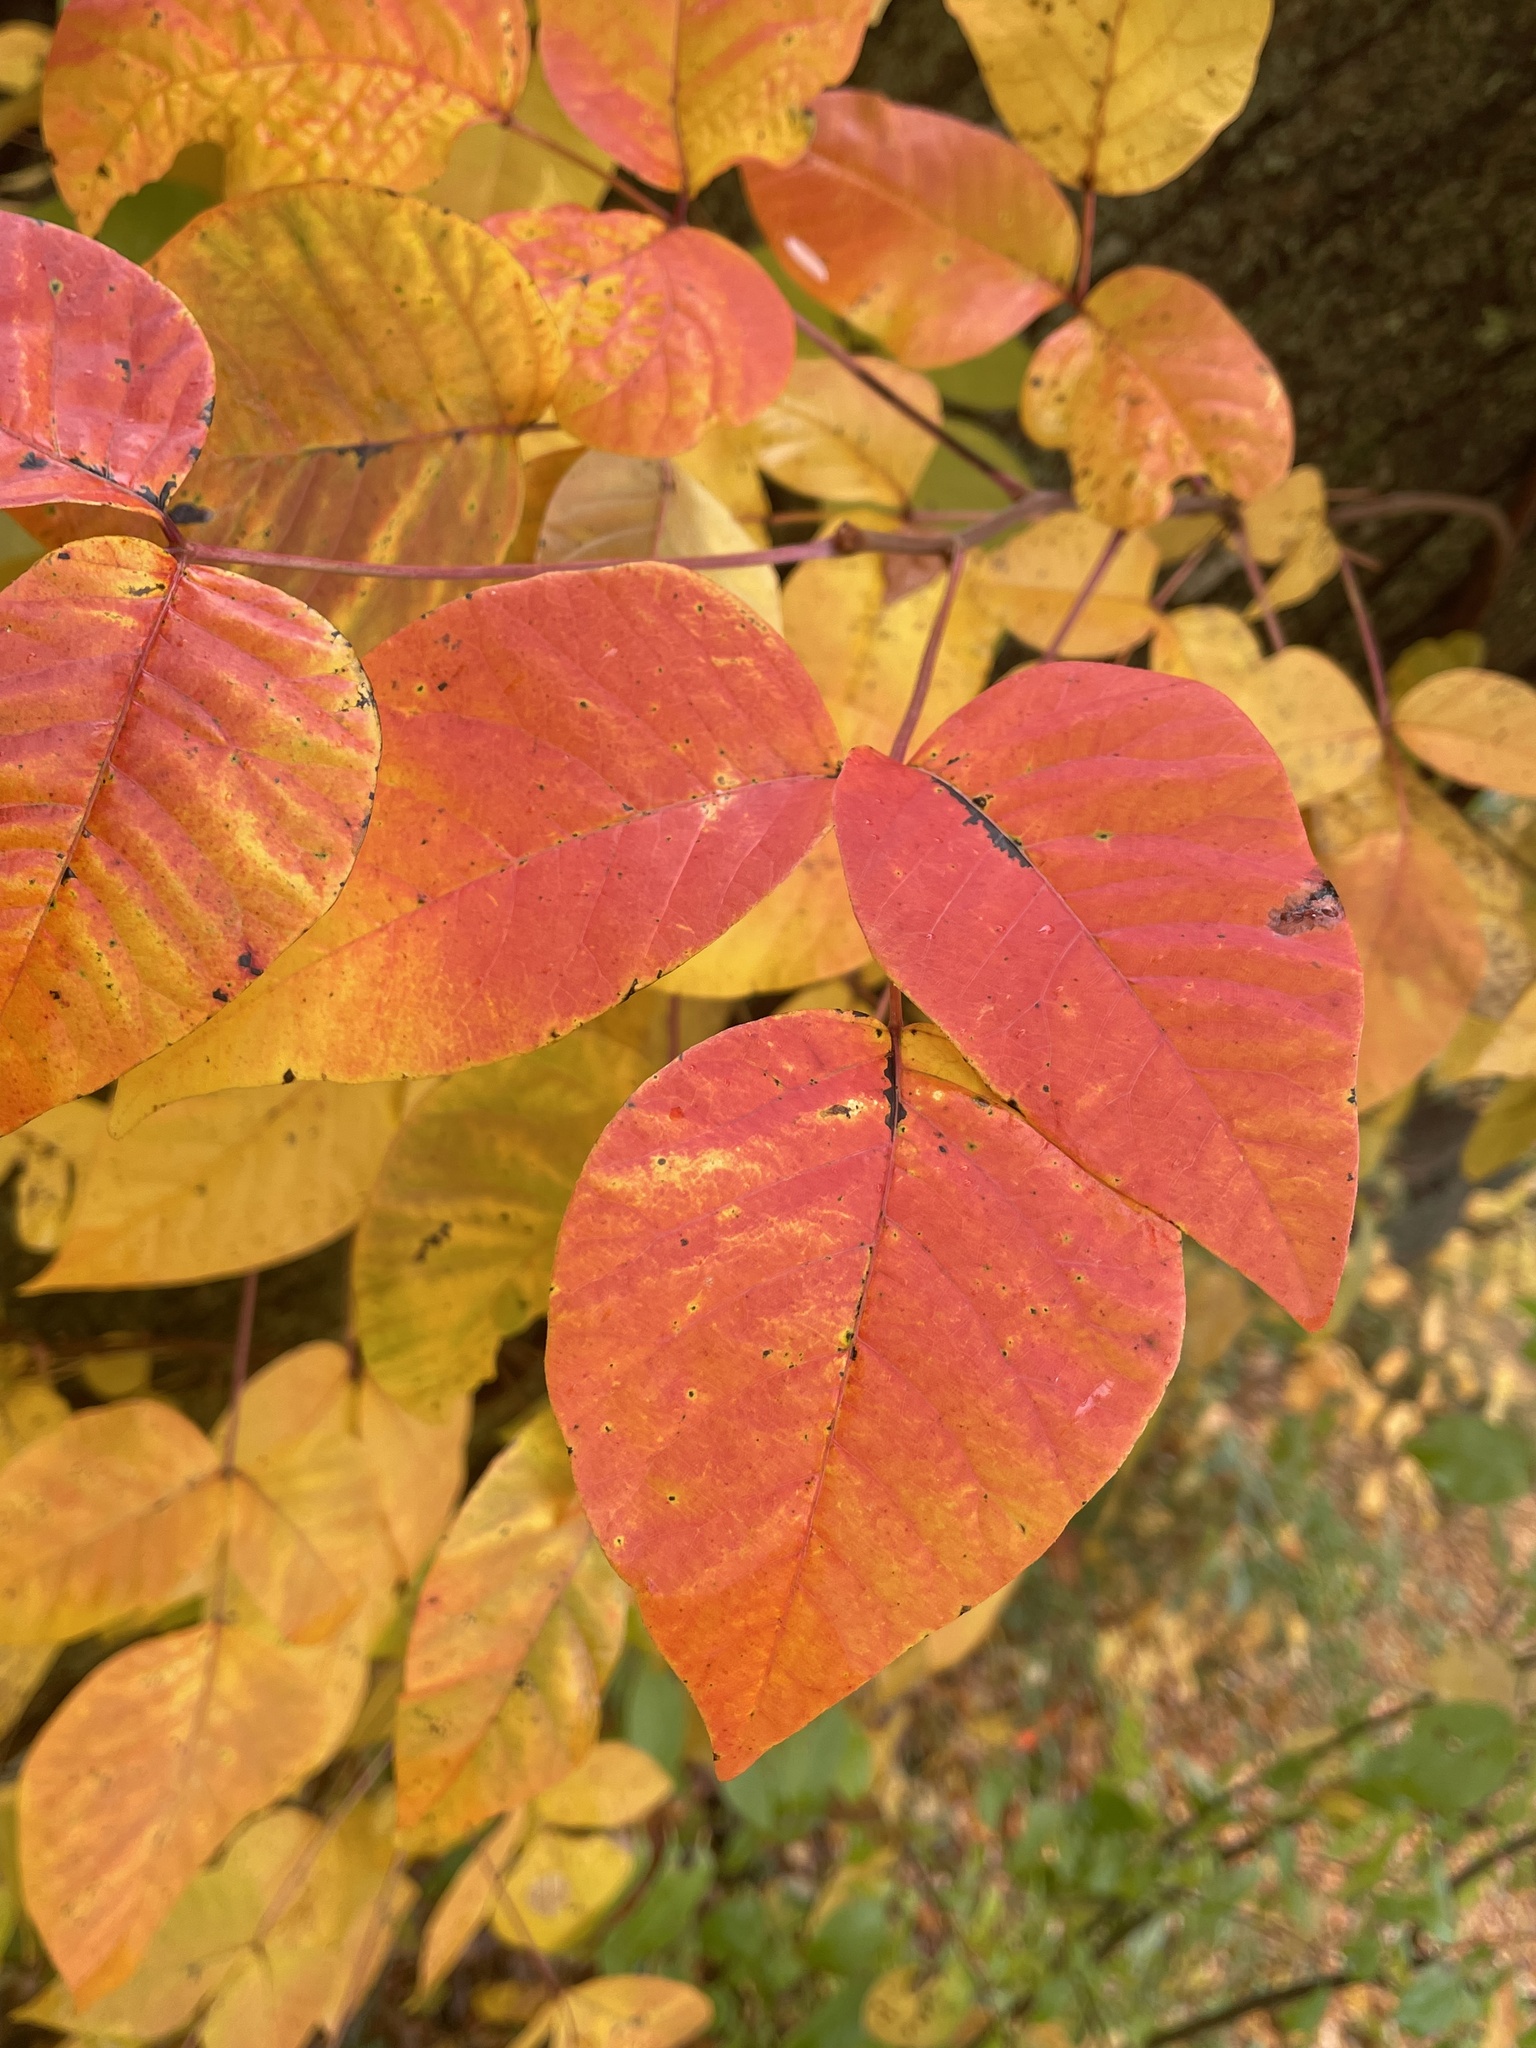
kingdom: Plantae
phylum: Tracheophyta
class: Magnoliopsida
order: Sapindales
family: Anacardiaceae
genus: Toxicodendron
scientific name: Toxicodendron radicans
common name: Poison ivy
